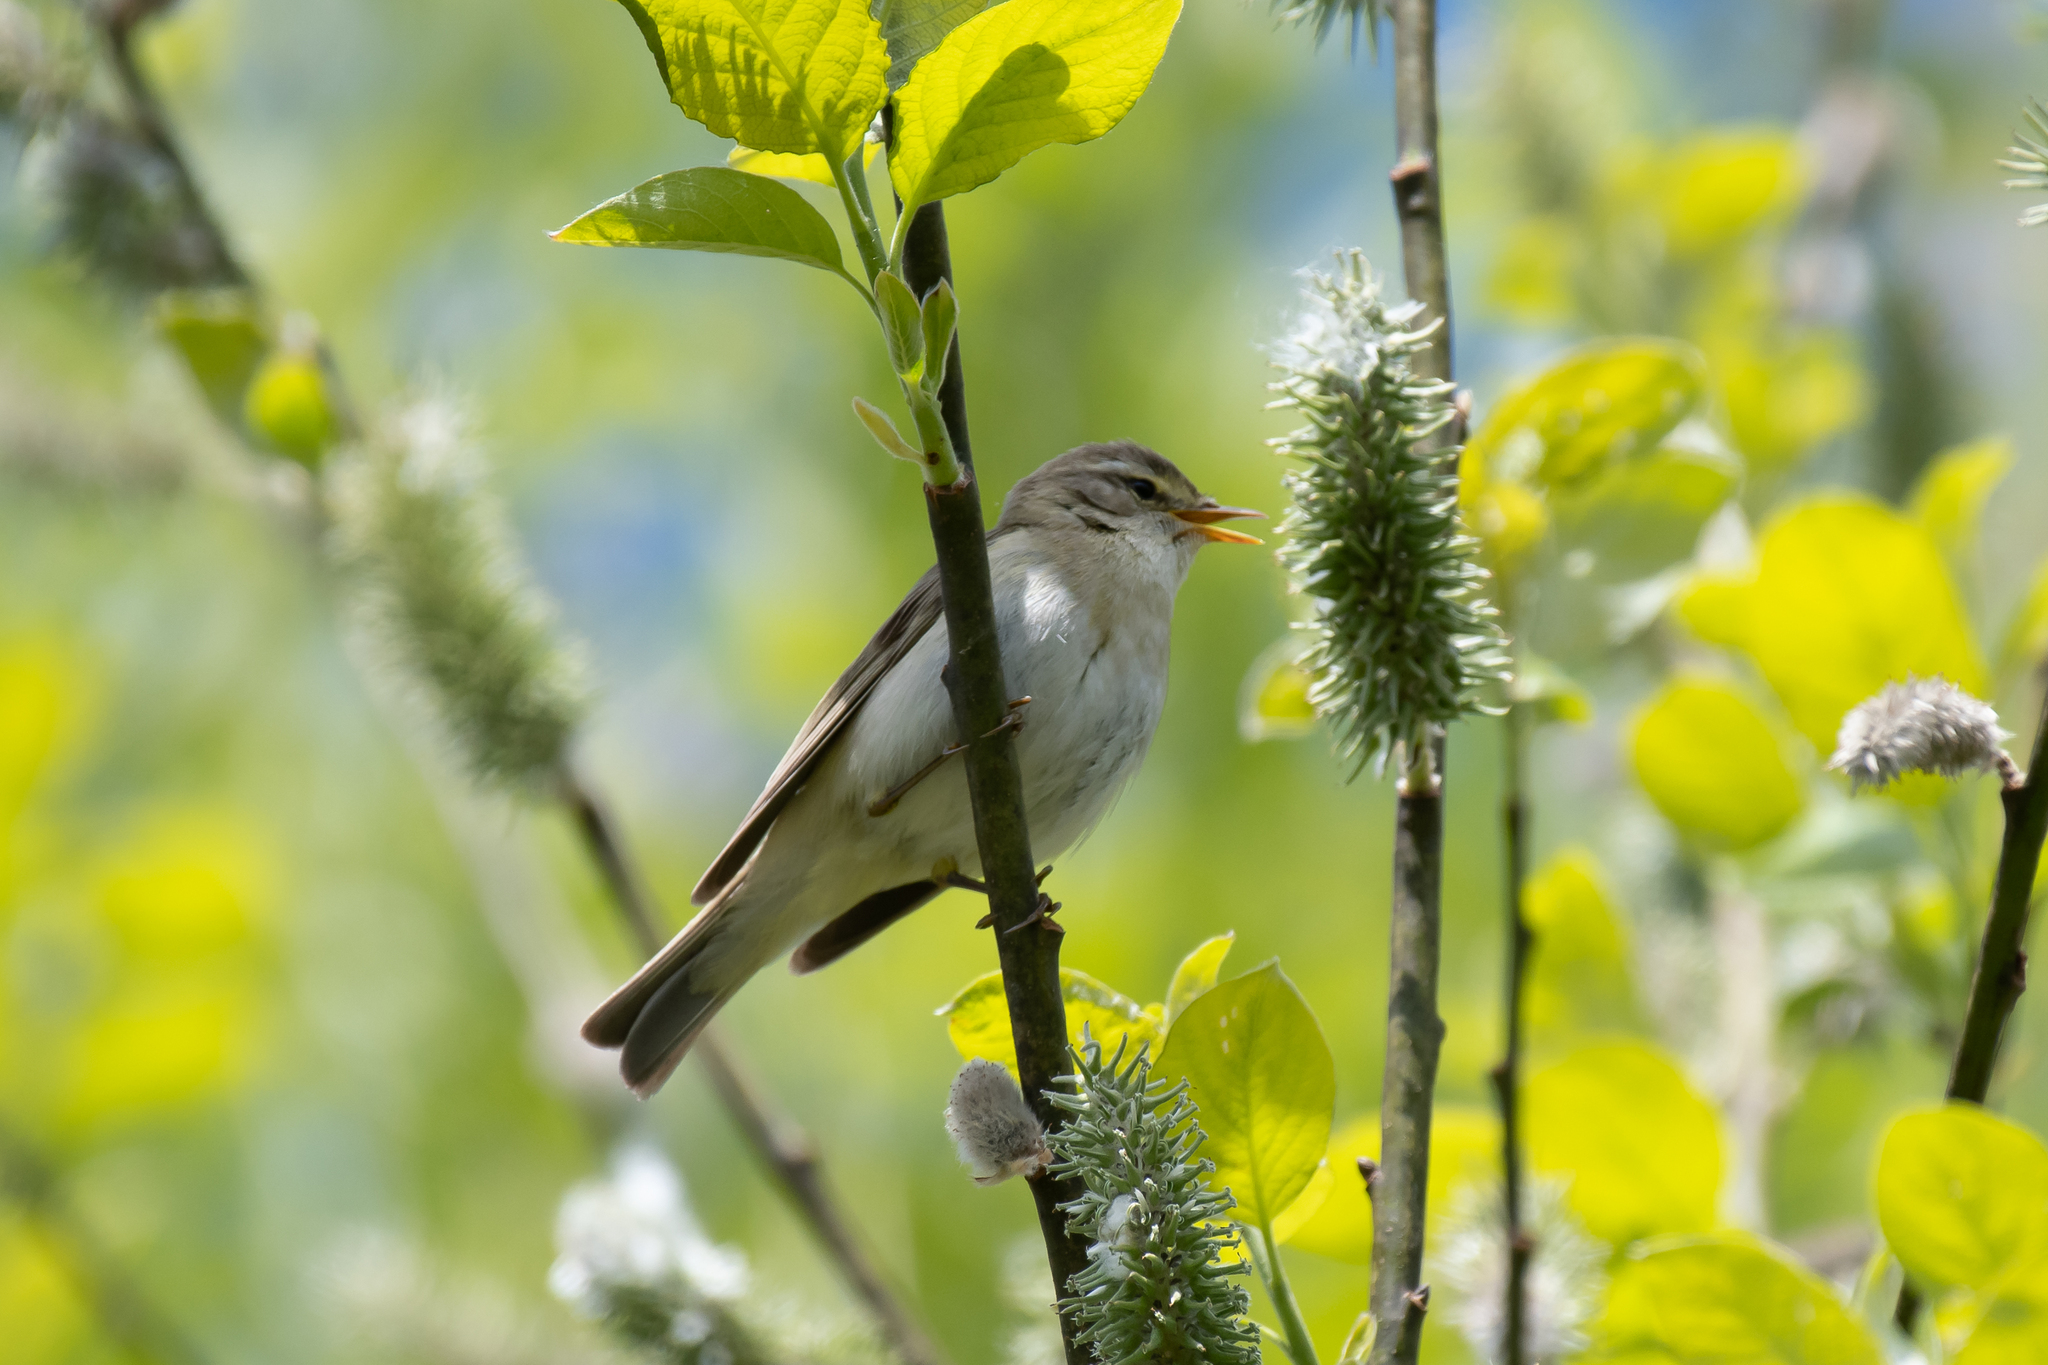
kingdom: Animalia
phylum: Chordata
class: Aves
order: Passeriformes
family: Phylloscopidae
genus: Phylloscopus
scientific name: Phylloscopus trochilus
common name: Willow warbler
